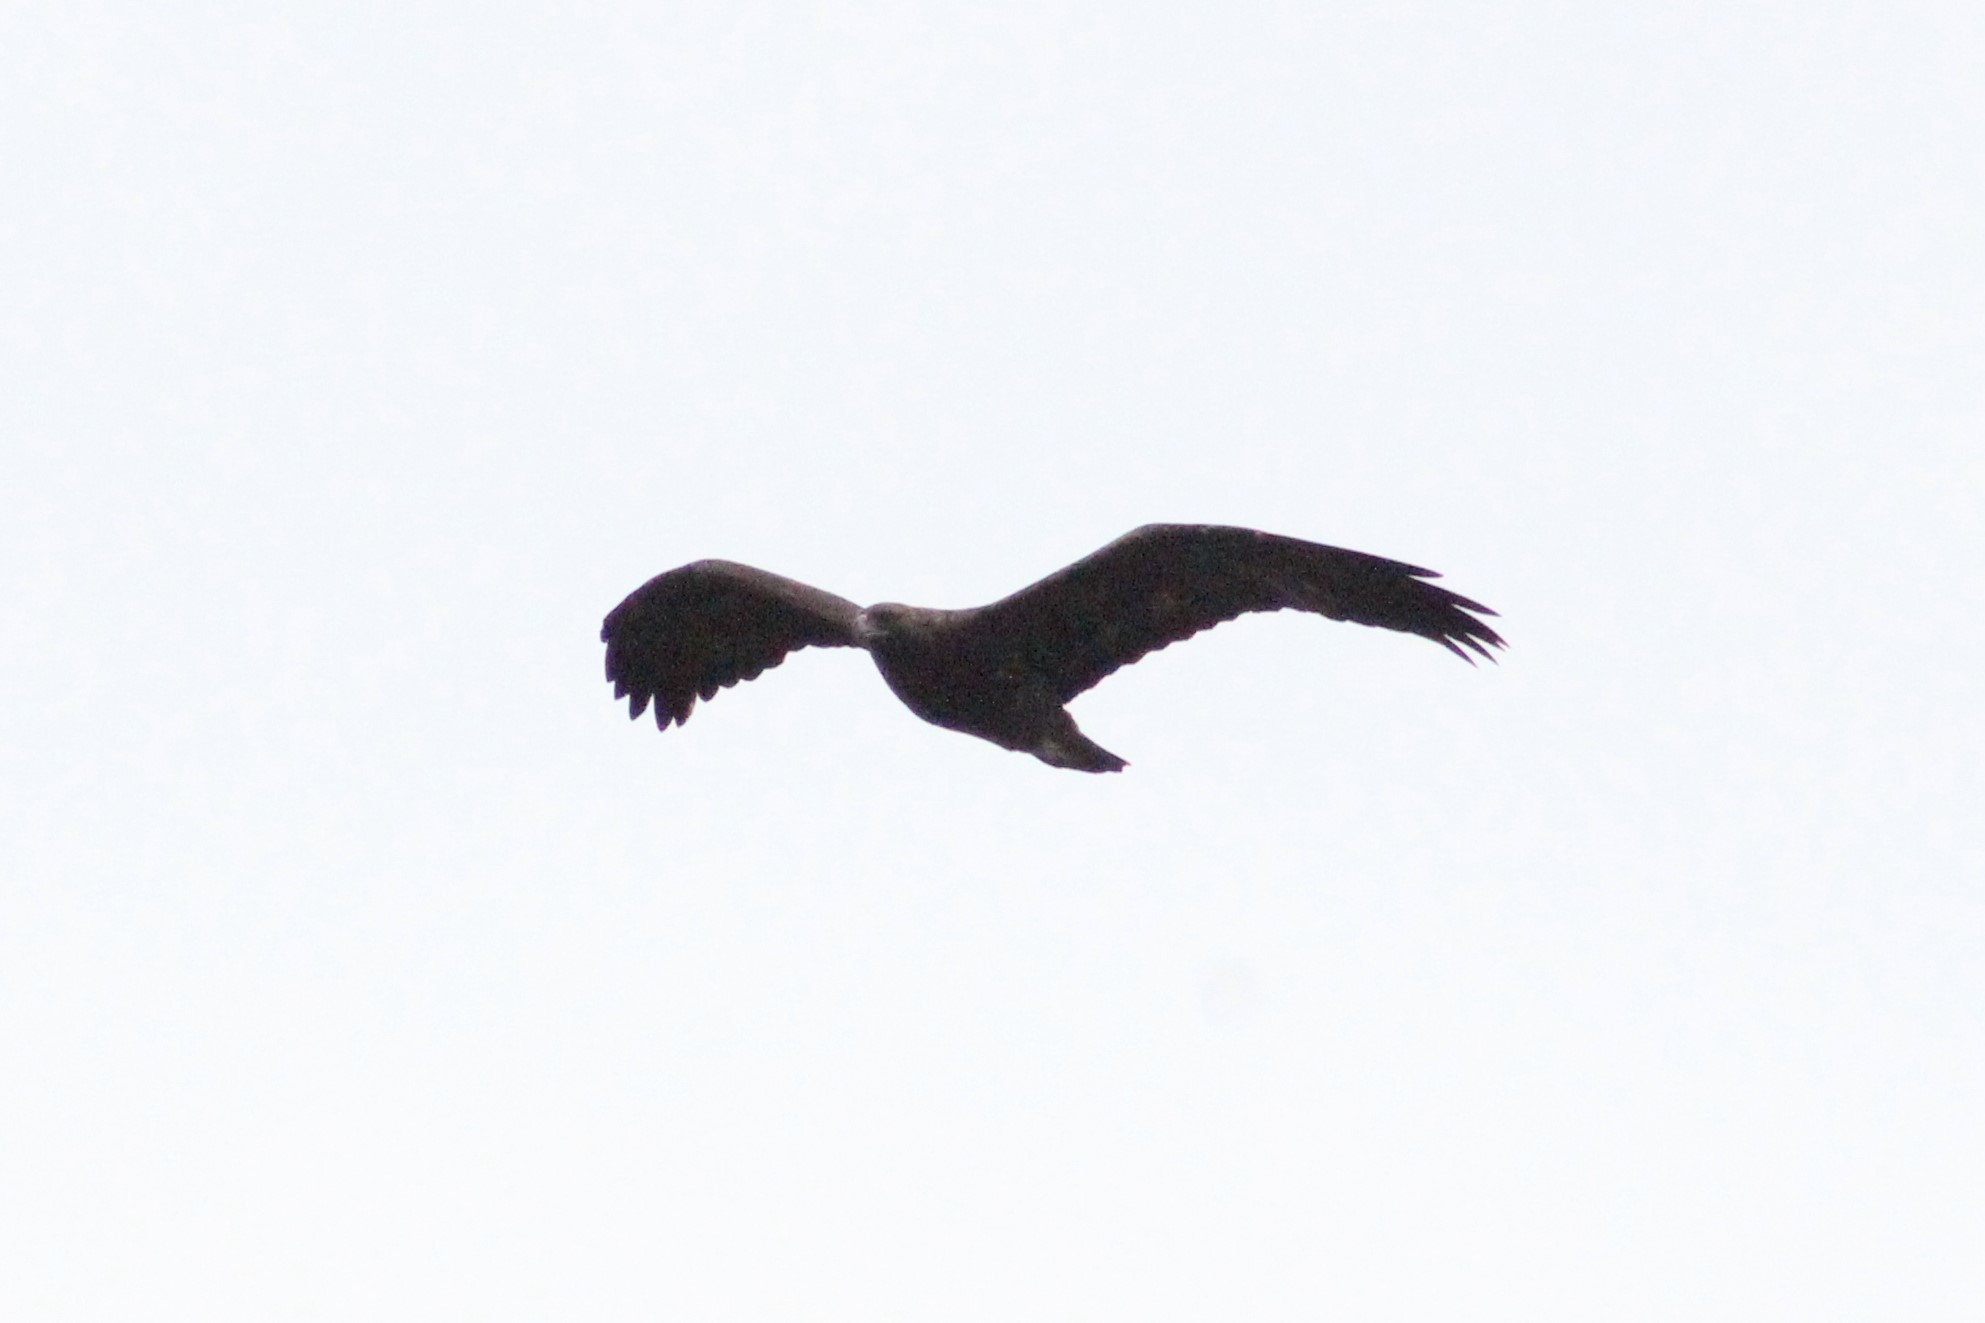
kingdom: Animalia
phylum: Chordata
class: Aves
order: Accipitriformes
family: Accipitridae
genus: Aquila
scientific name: Aquila chrysaetos
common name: Golden eagle
